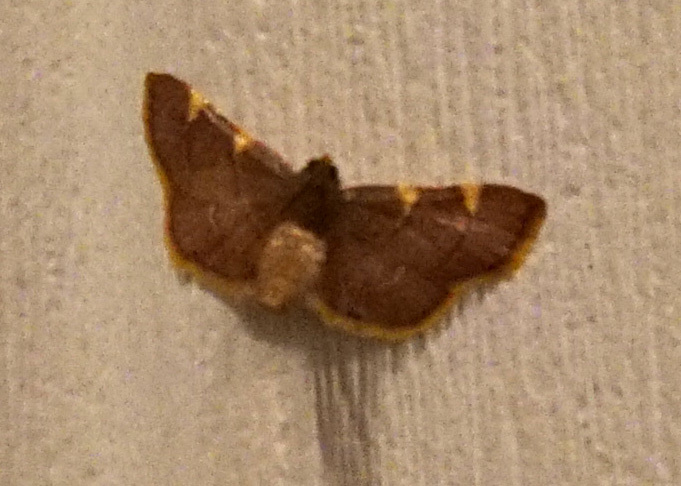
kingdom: Animalia
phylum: Arthropoda
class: Insecta
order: Lepidoptera
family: Pyralidae
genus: Hypsopygia
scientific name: Hypsopygia olinalis
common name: Yellow-fringed dolichomia moth
